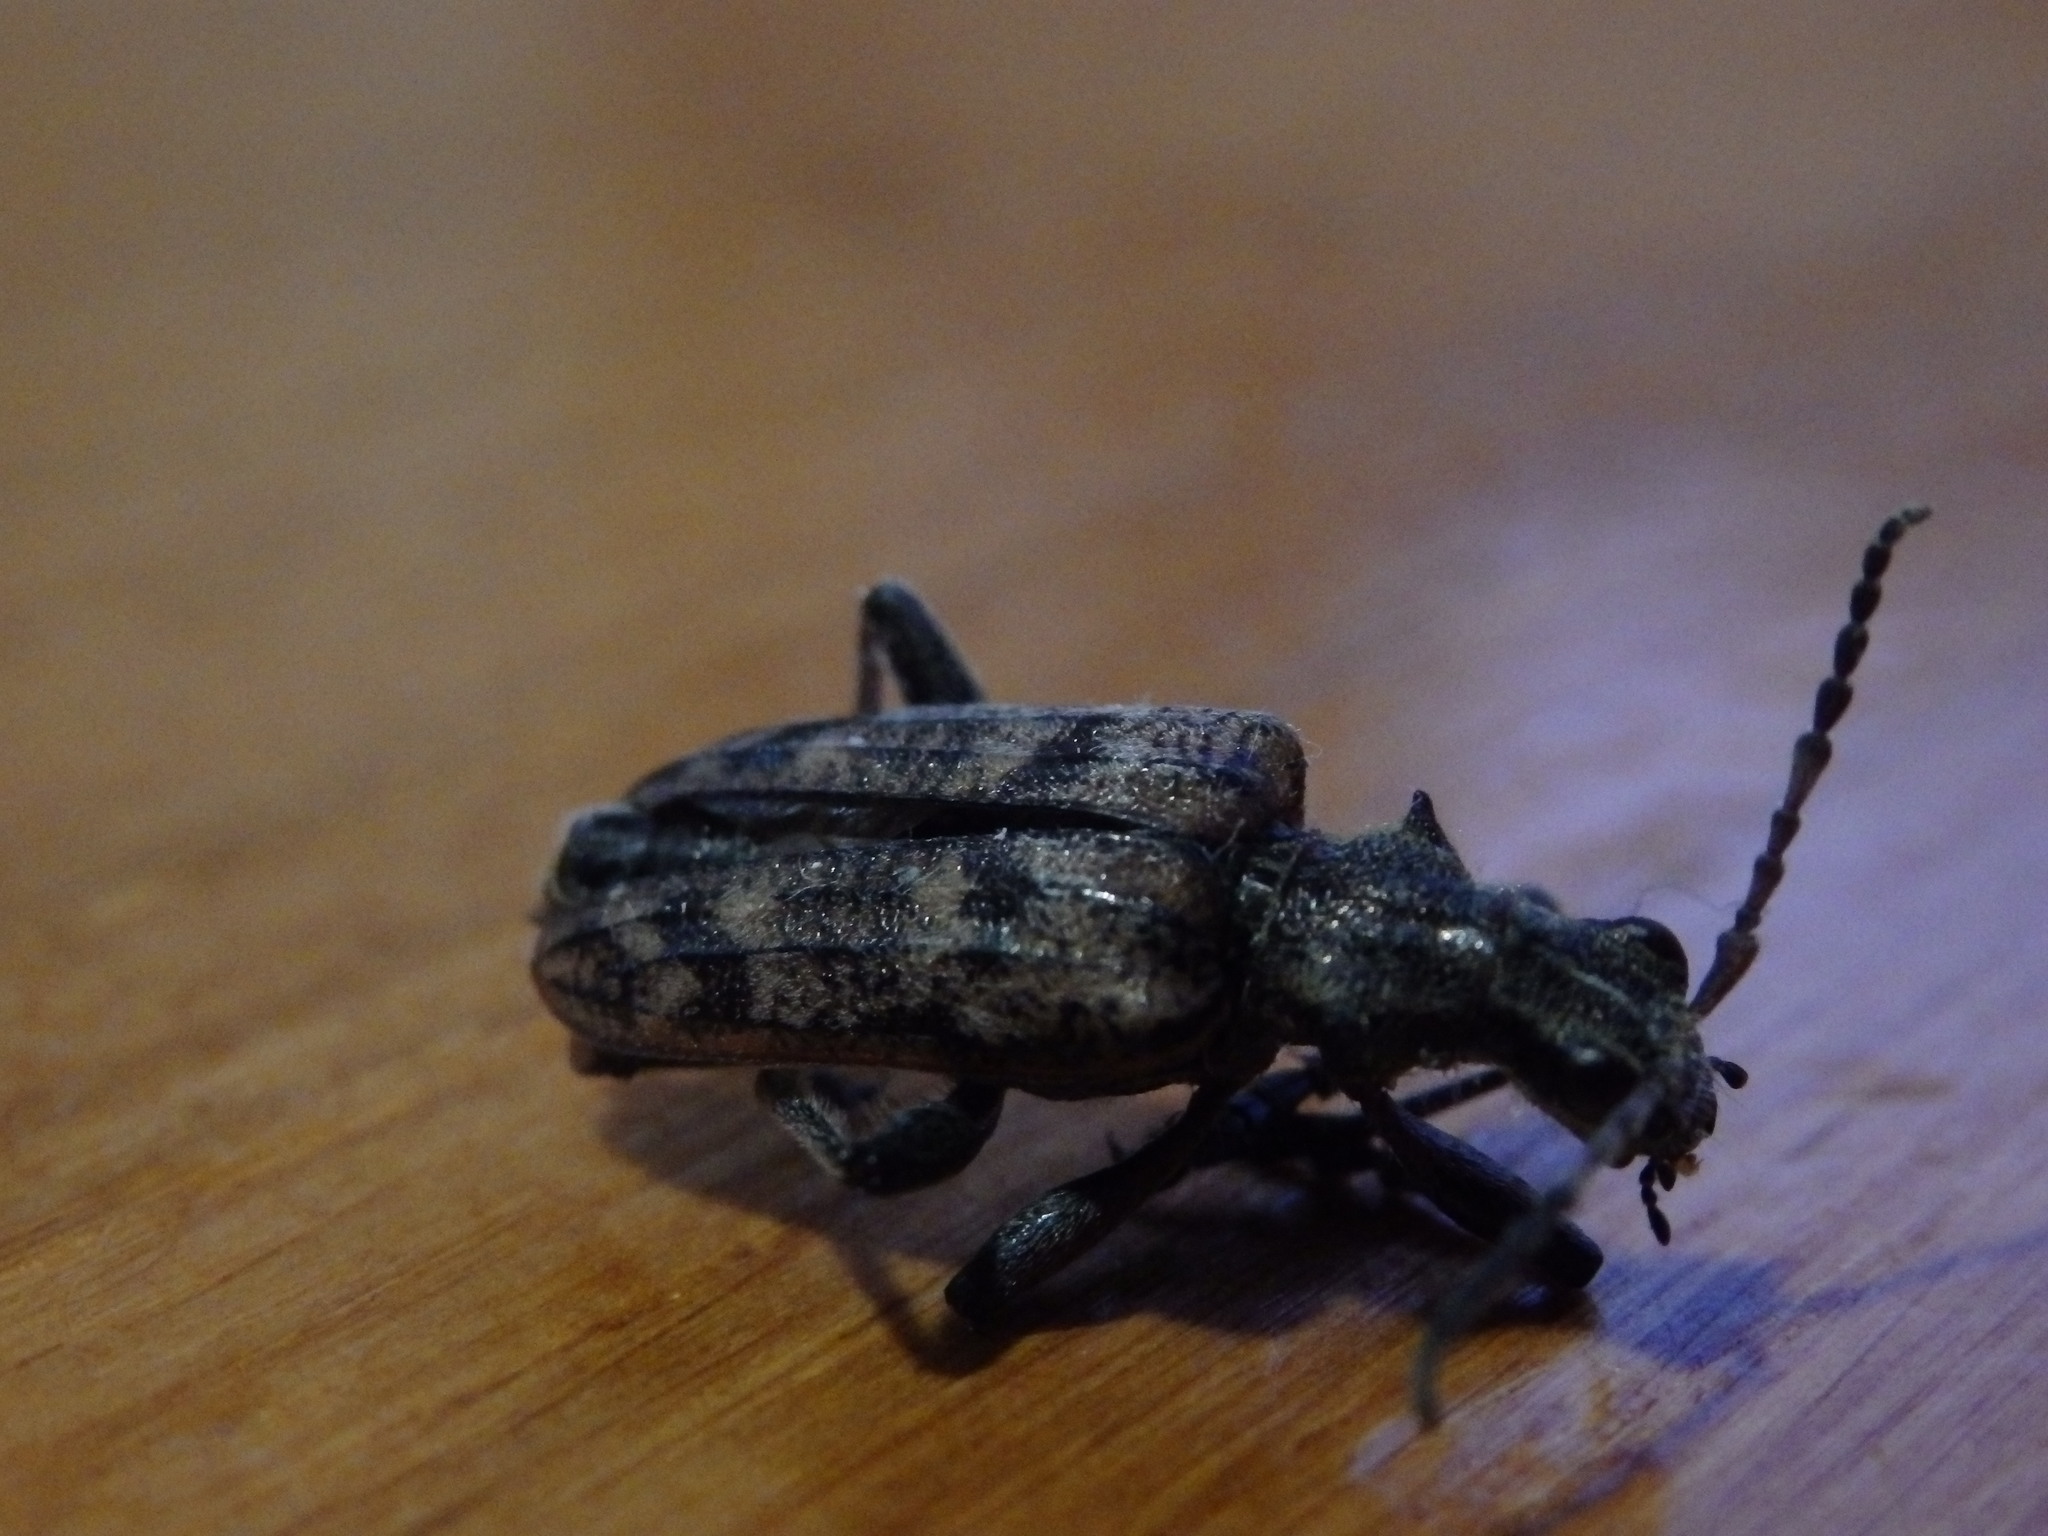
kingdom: Animalia
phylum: Arthropoda
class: Insecta
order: Coleoptera
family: Cerambycidae
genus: Rhagium
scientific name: Rhagium inquisitor
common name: Ribbed pine borer
